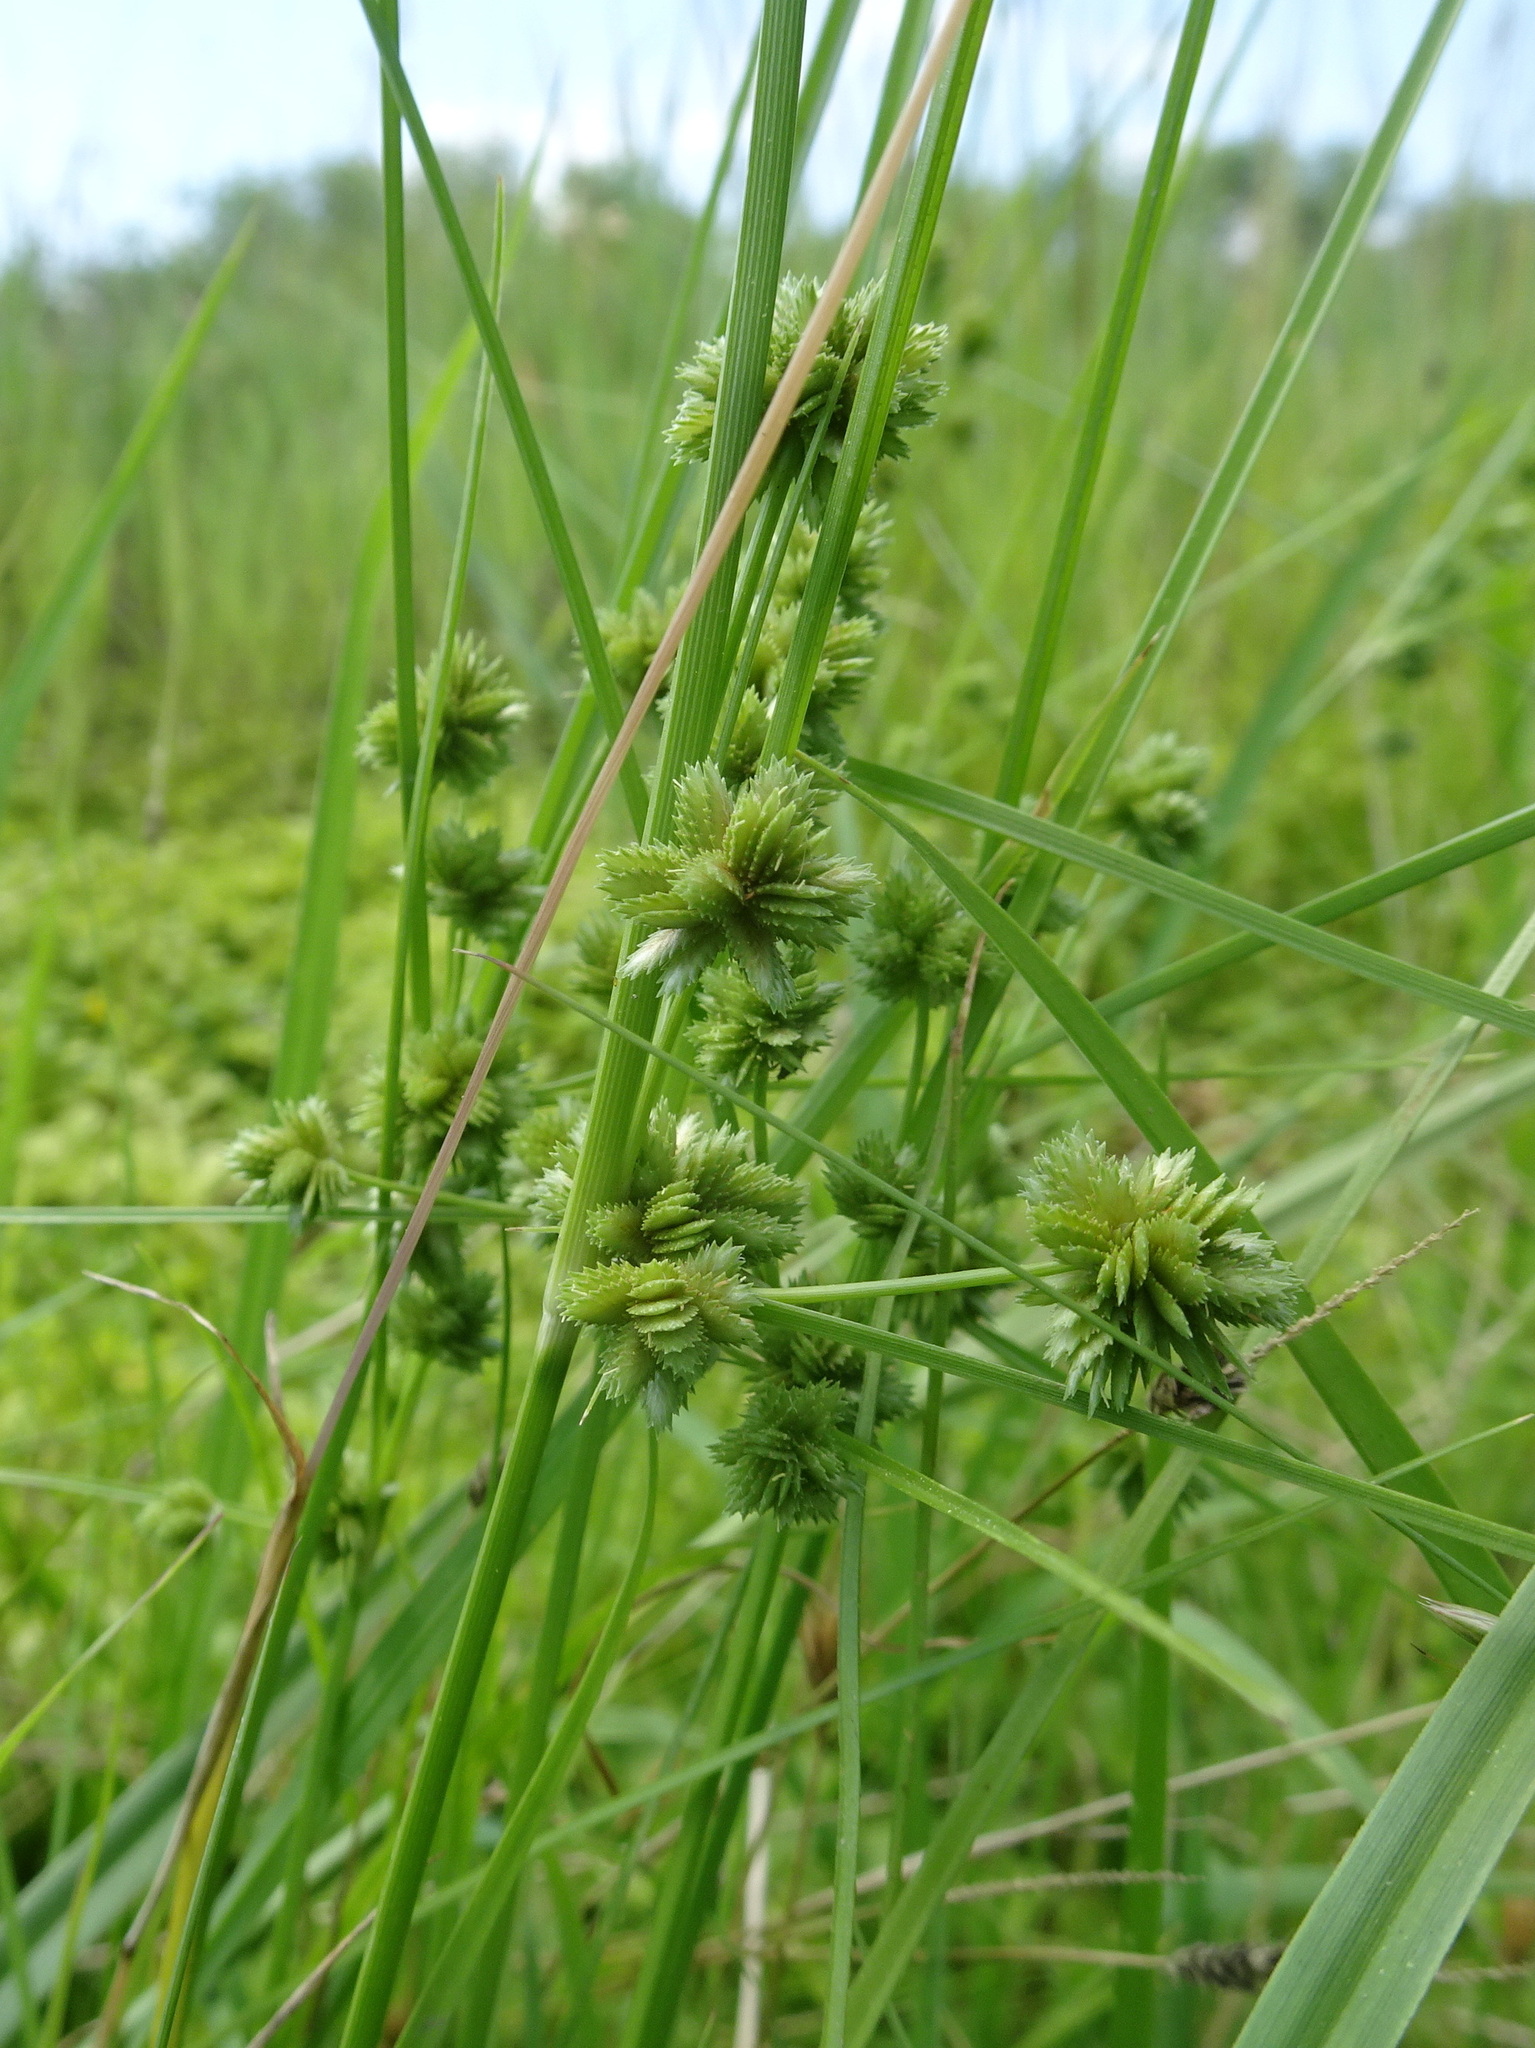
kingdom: Plantae
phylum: Tracheophyta
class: Liliopsida
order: Poales
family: Cyperaceae
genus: Cyperus
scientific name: Cyperus acuminatus
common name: Short-pointed cyperus
